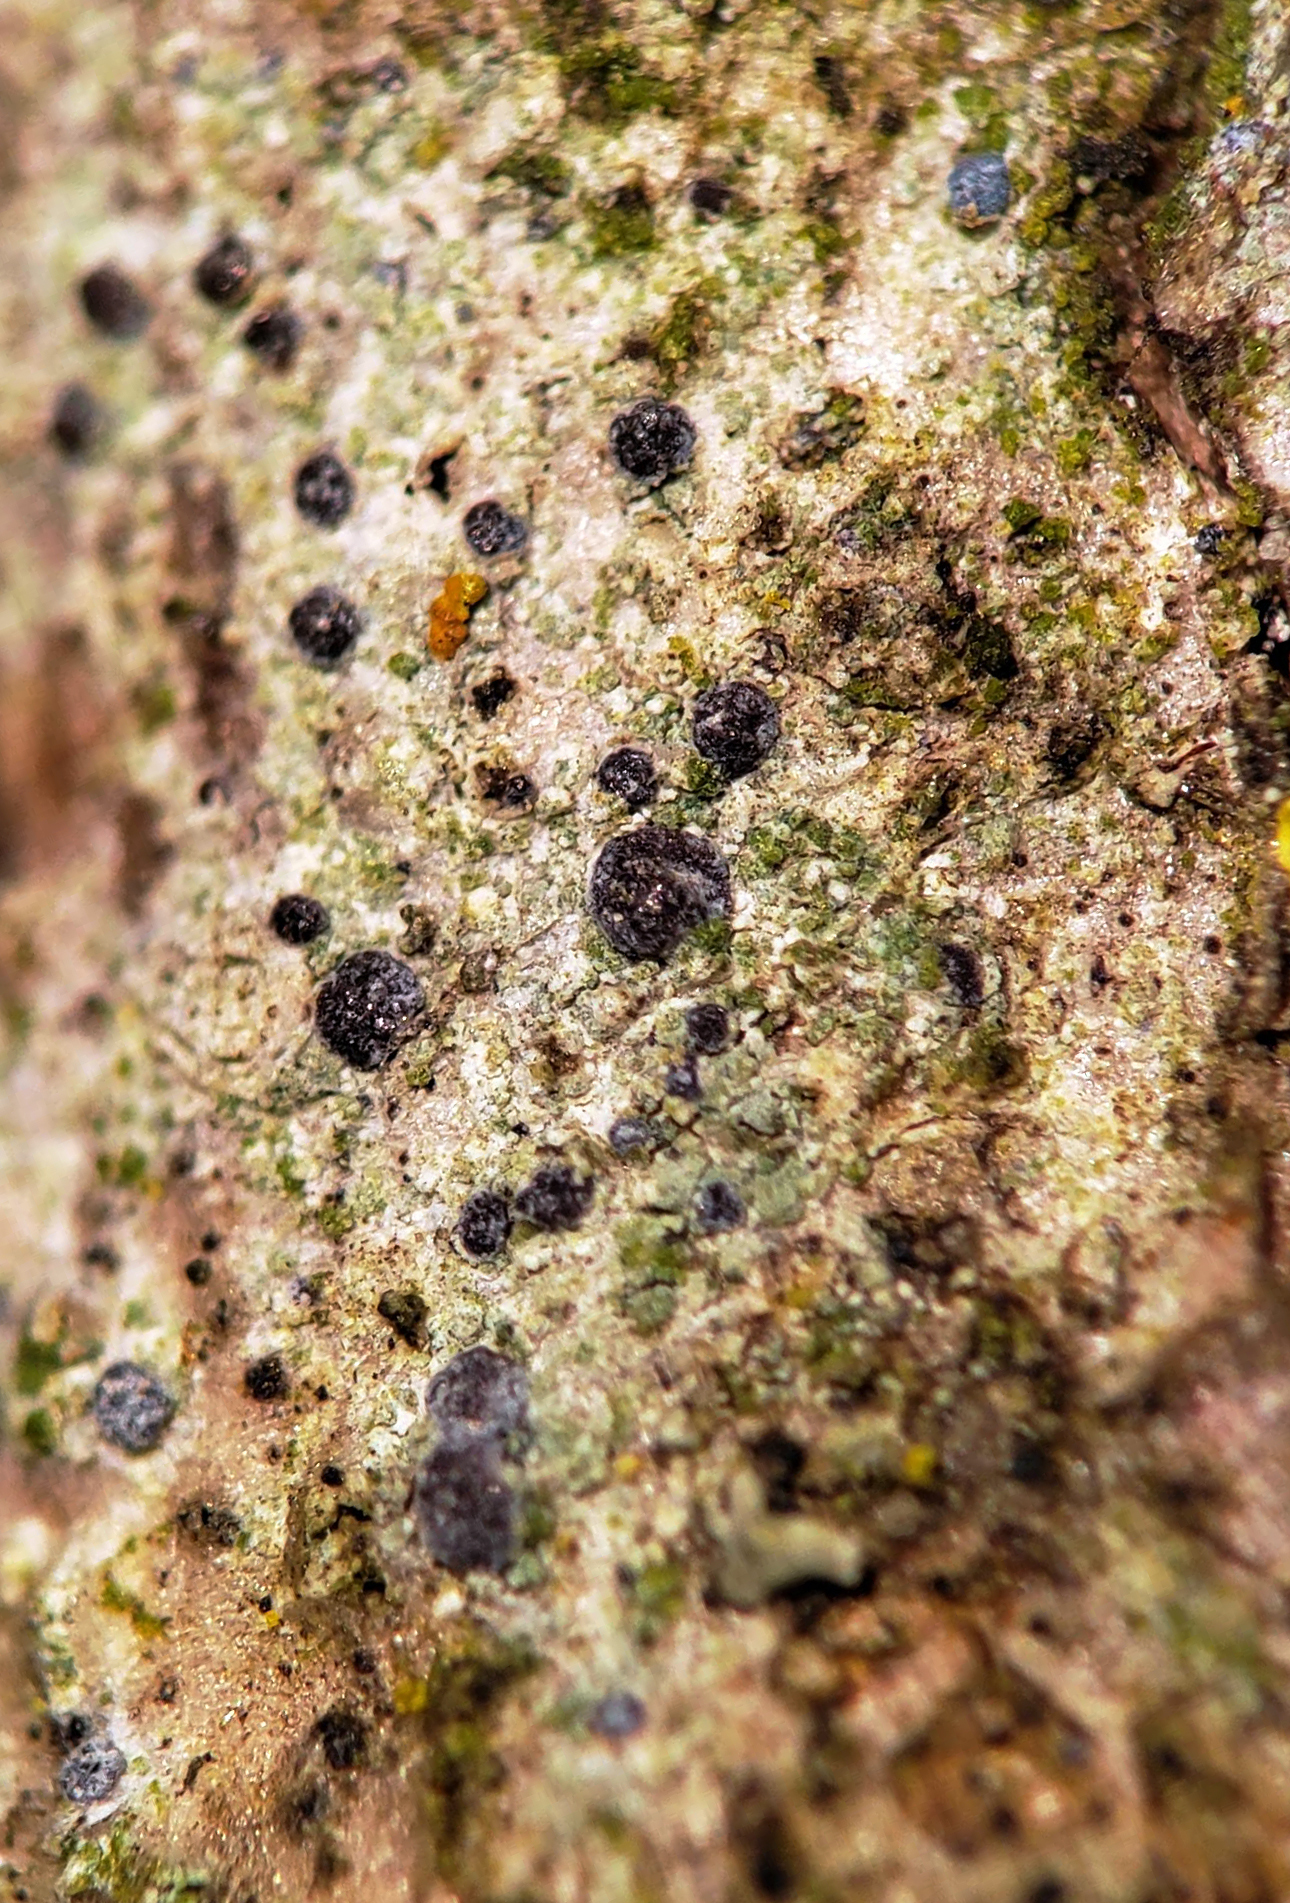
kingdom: Fungi
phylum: Ascomycota
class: Arthoniomycetes
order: Arthoniales
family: Chrysotrichaceae
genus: Chrysothrix
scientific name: Chrysothrix caesia
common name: Frosted comma lichen
